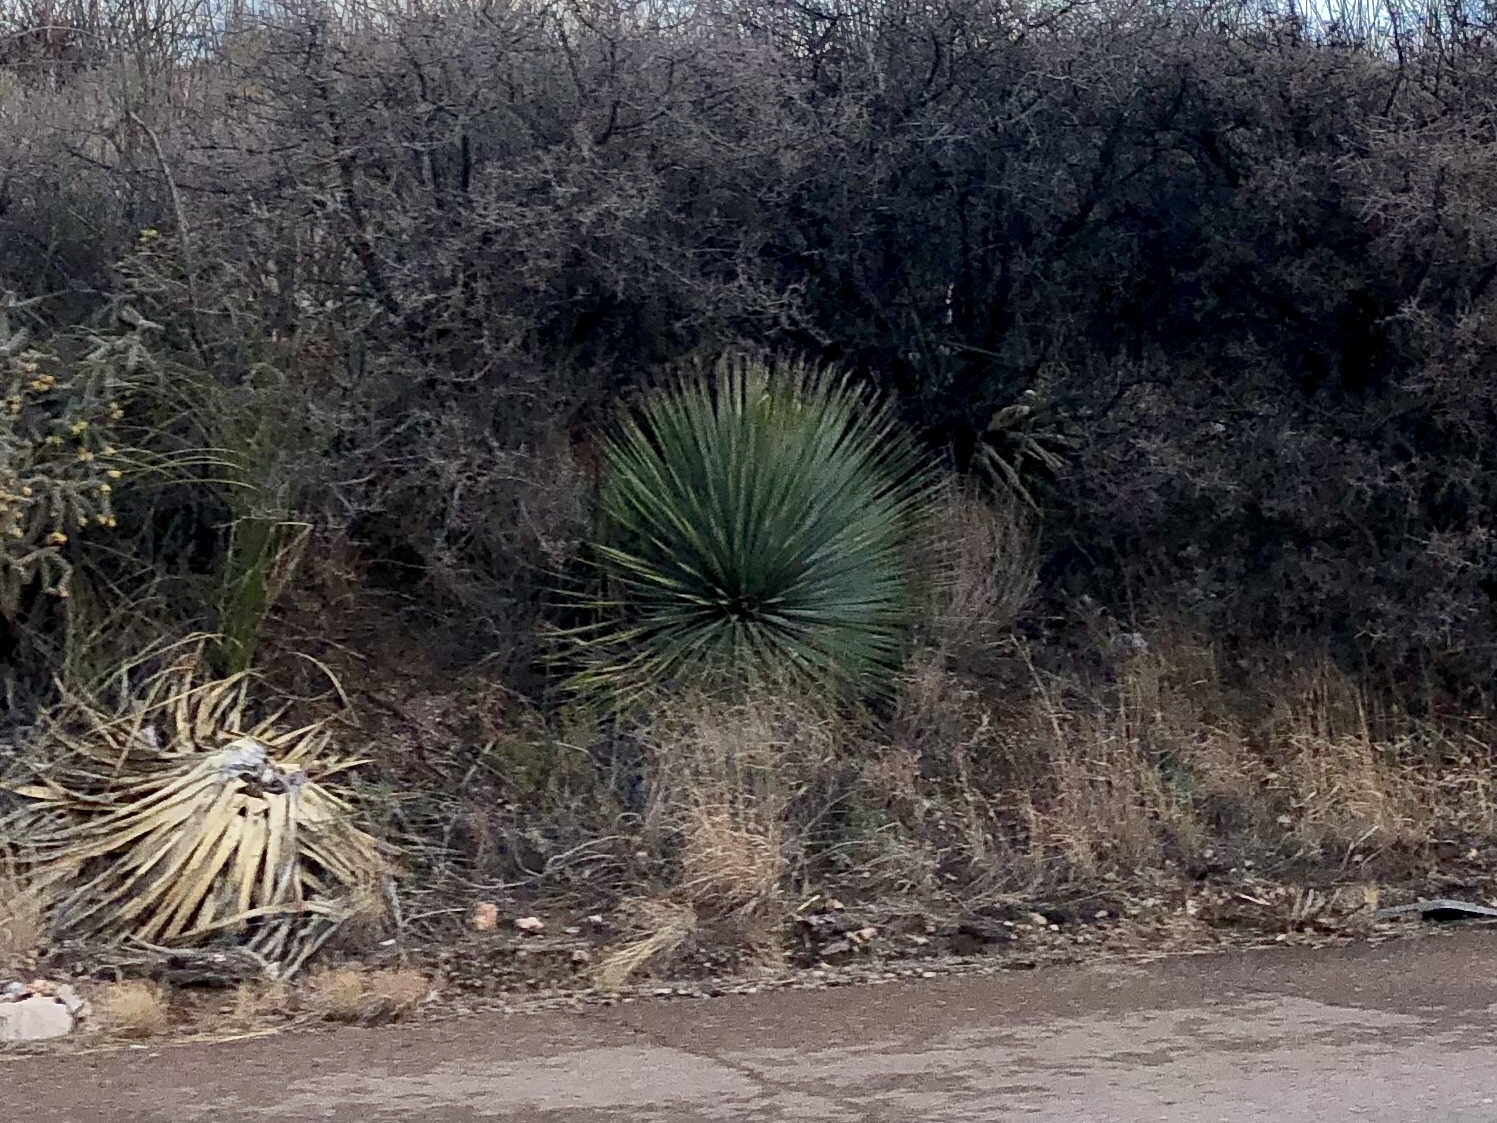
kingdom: Plantae
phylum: Tracheophyta
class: Liliopsida
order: Asparagales
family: Asparagaceae
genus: Yucca
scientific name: Yucca elata
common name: Palmella
